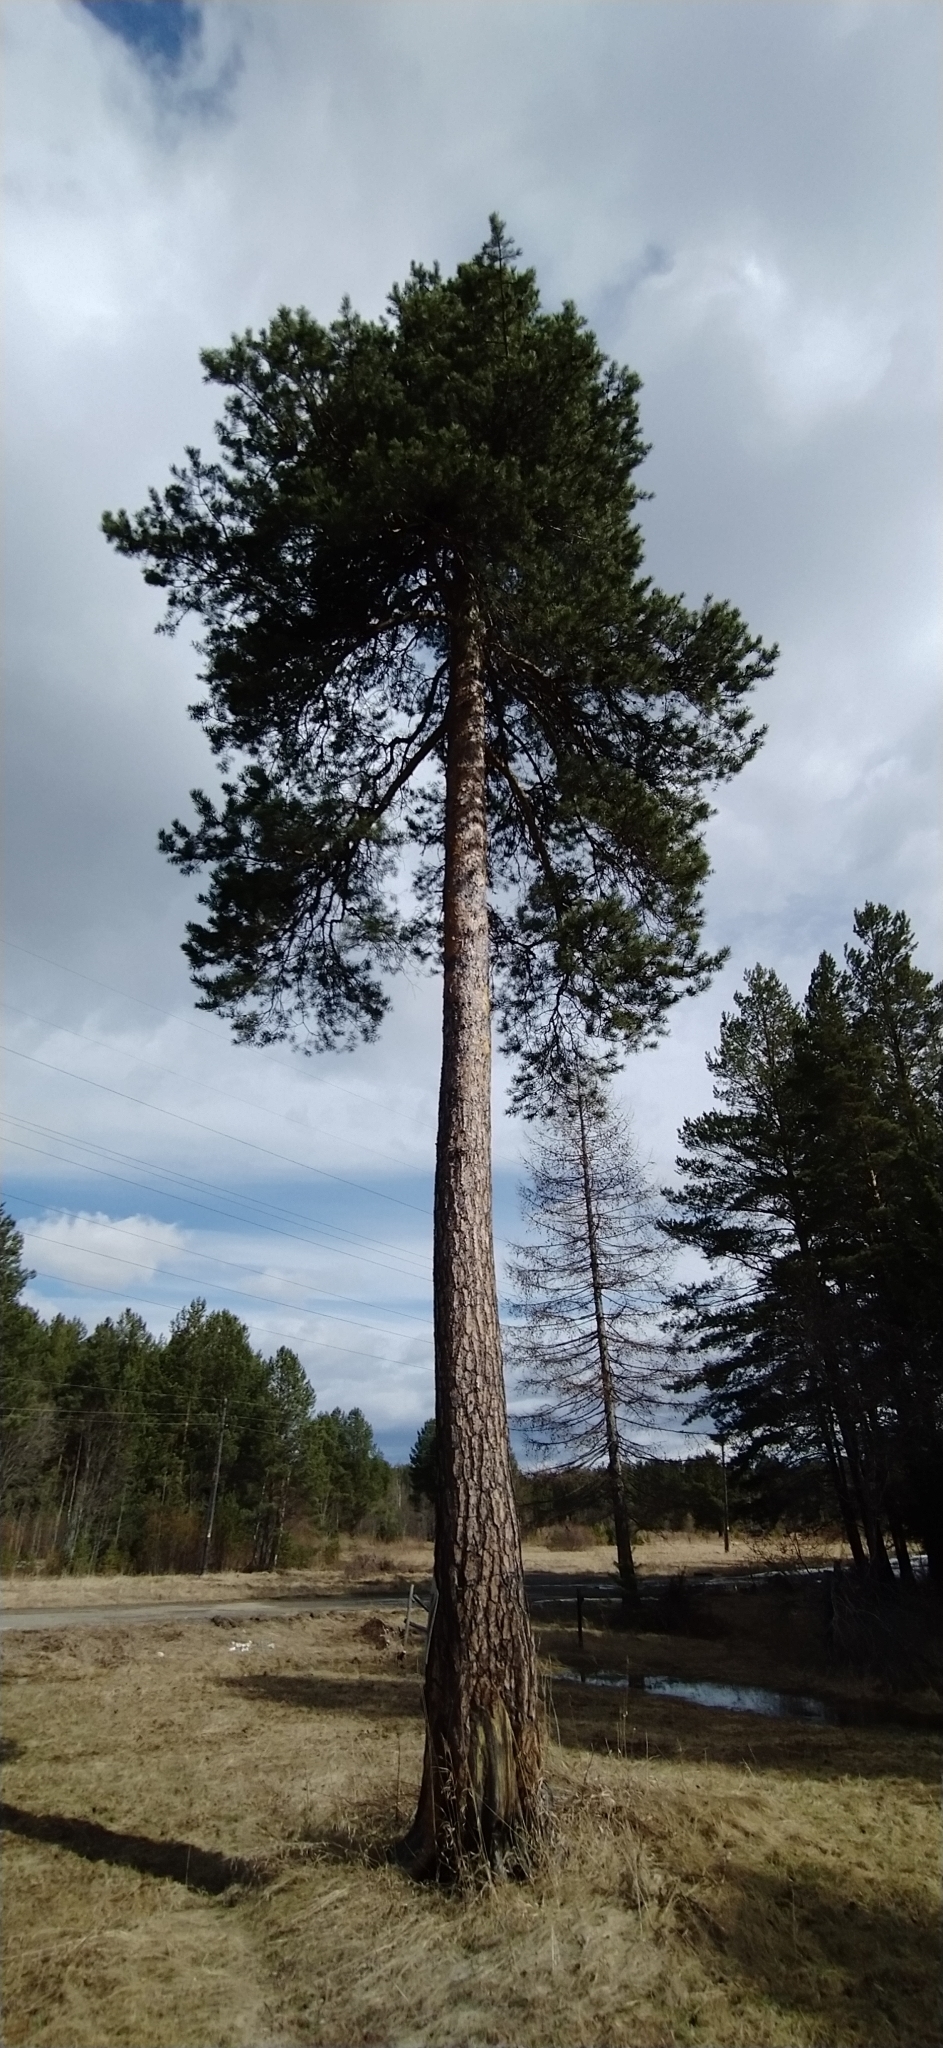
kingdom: Plantae
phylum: Tracheophyta
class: Pinopsida
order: Pinales
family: Pinaceae
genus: Pinus
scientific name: Pinus sylvestris
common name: Scots pine
